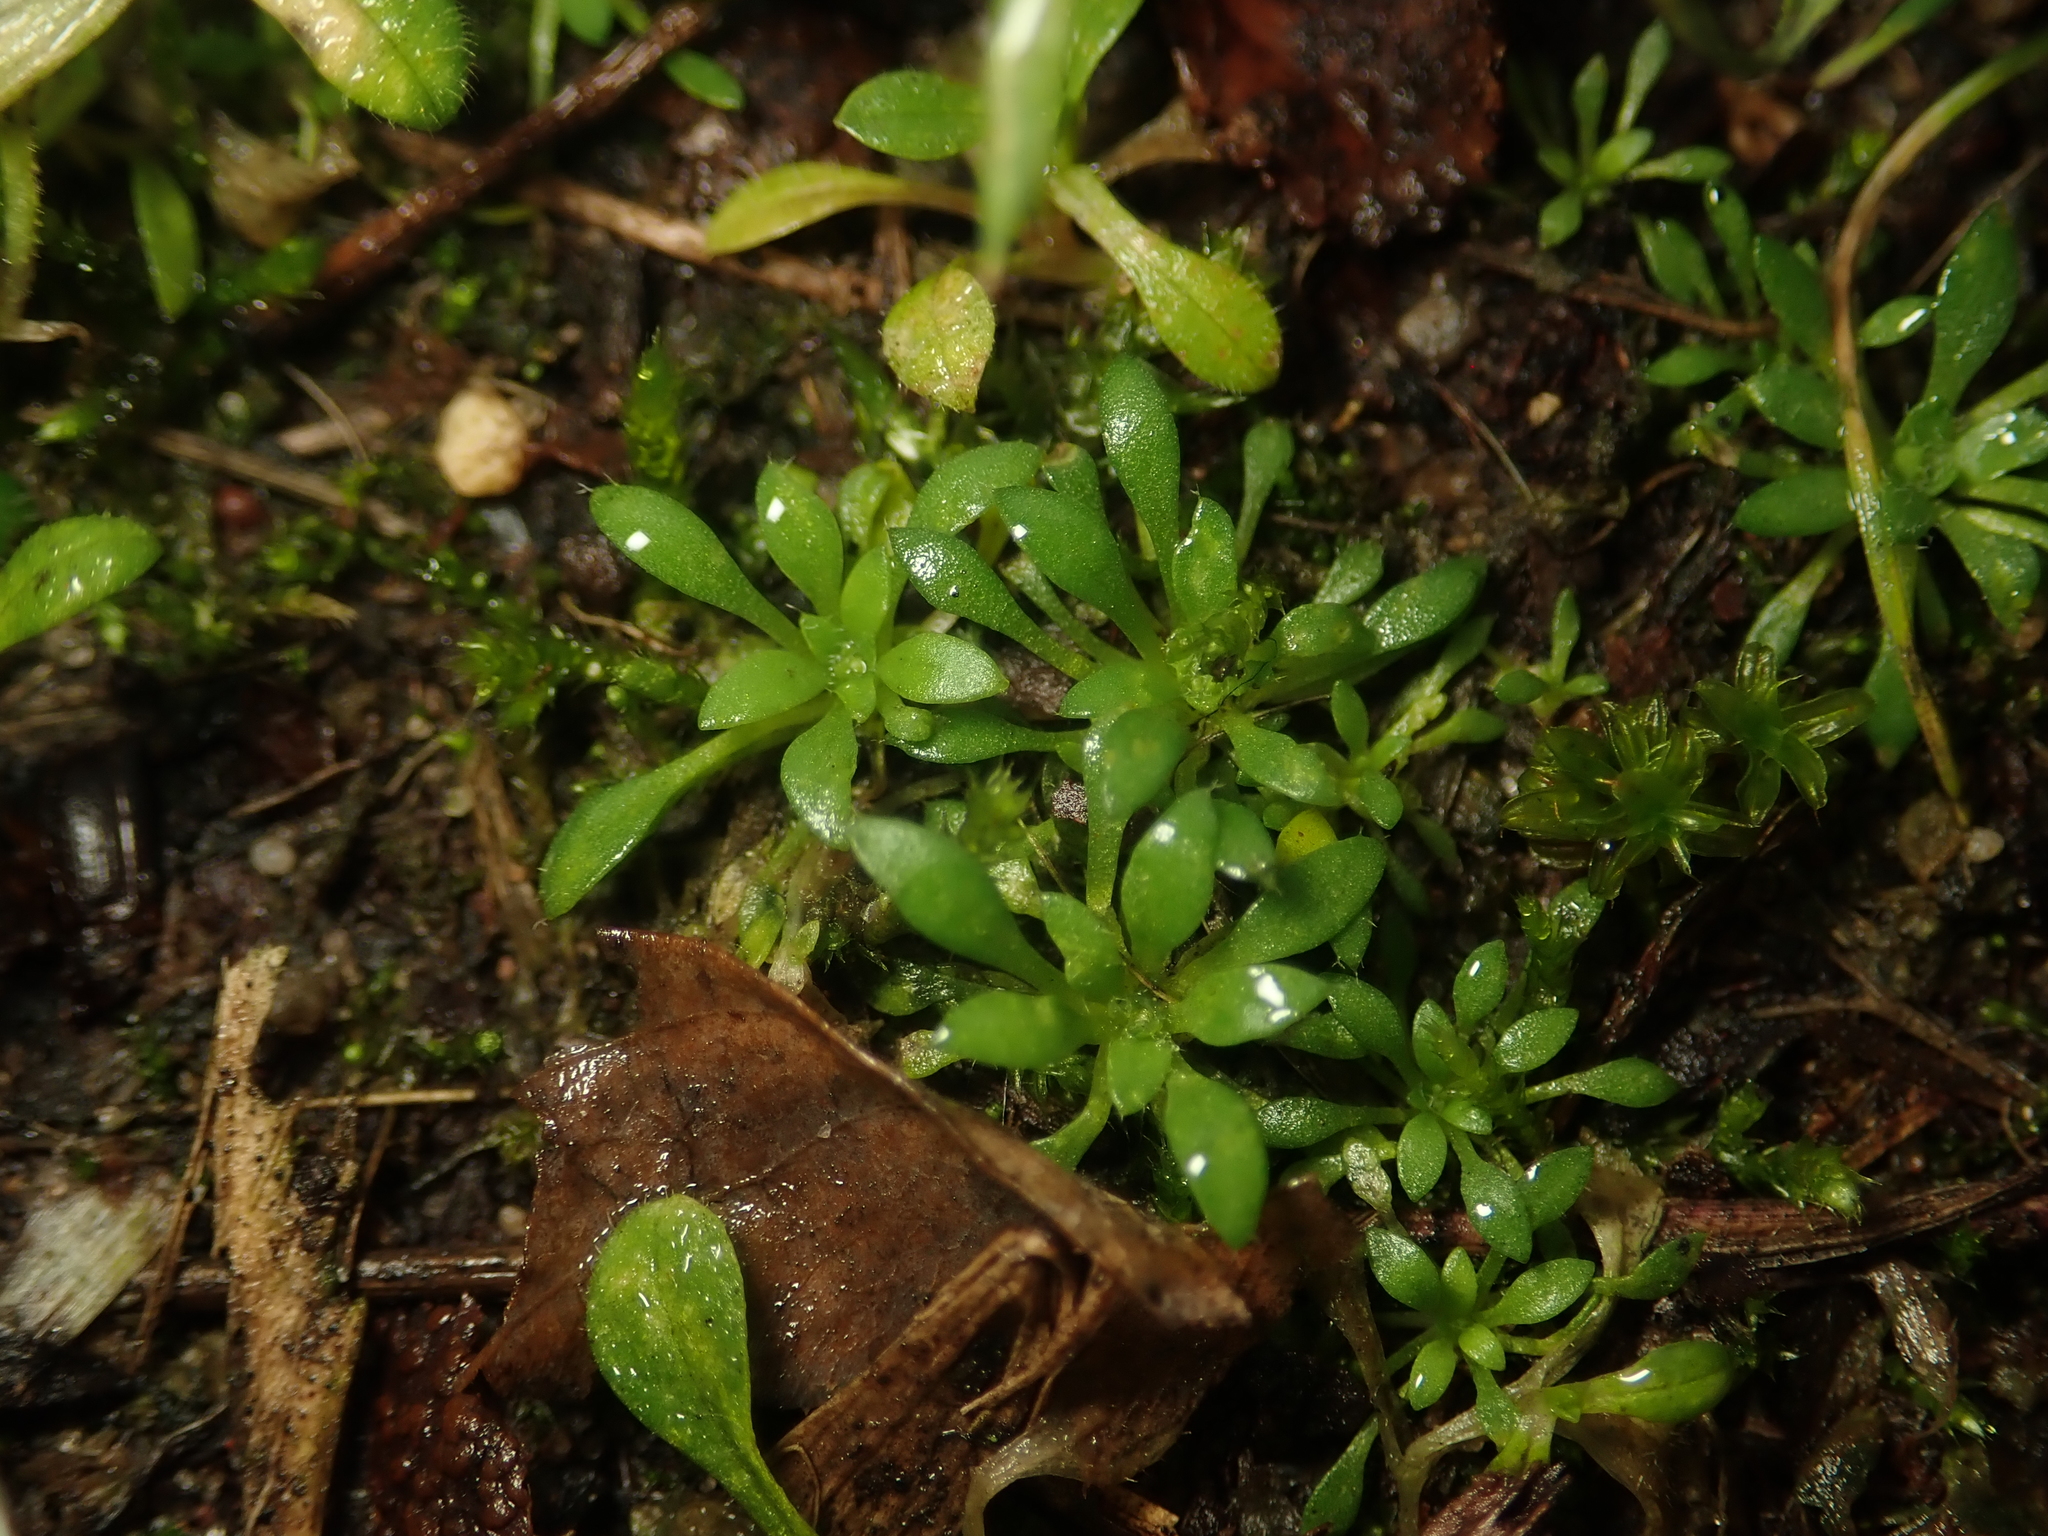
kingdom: Plantae
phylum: Tracheophyta
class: Magnoliopsida
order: Brassicales
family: Brassicaceae
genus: Draba
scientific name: Draba verna
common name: Spring draba
